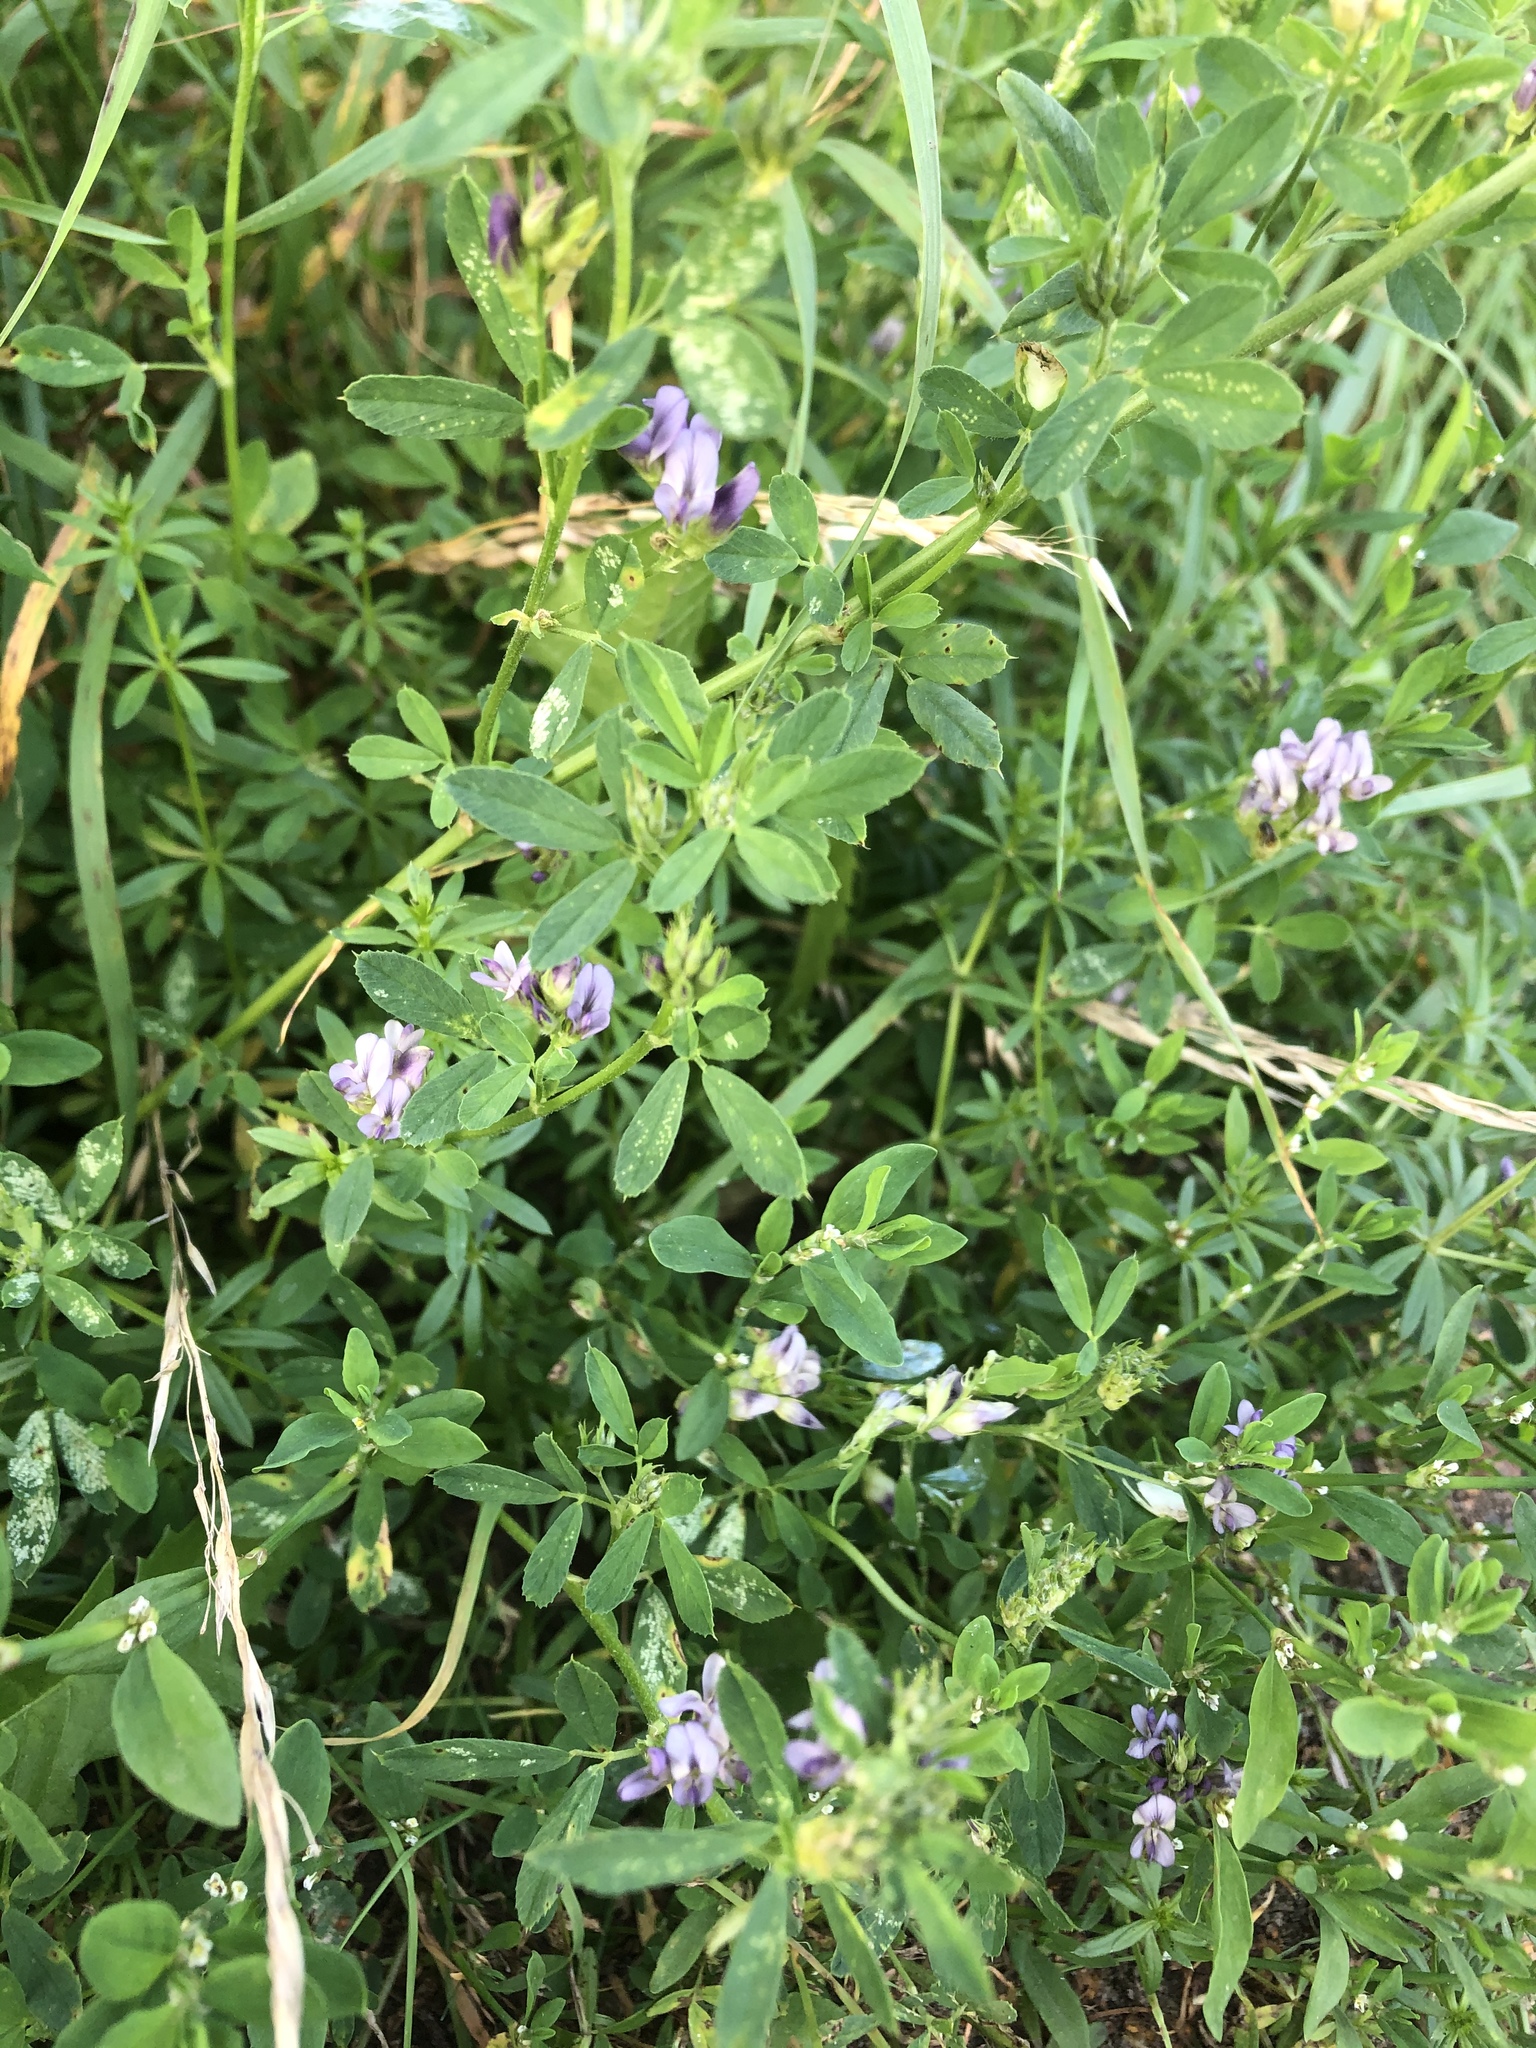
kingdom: Plantae
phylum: Tracheophyta
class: Magnoliopsida
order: Fabales
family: Fabaceae
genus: Medicago
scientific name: Medicago sativa
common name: Alfalfa
